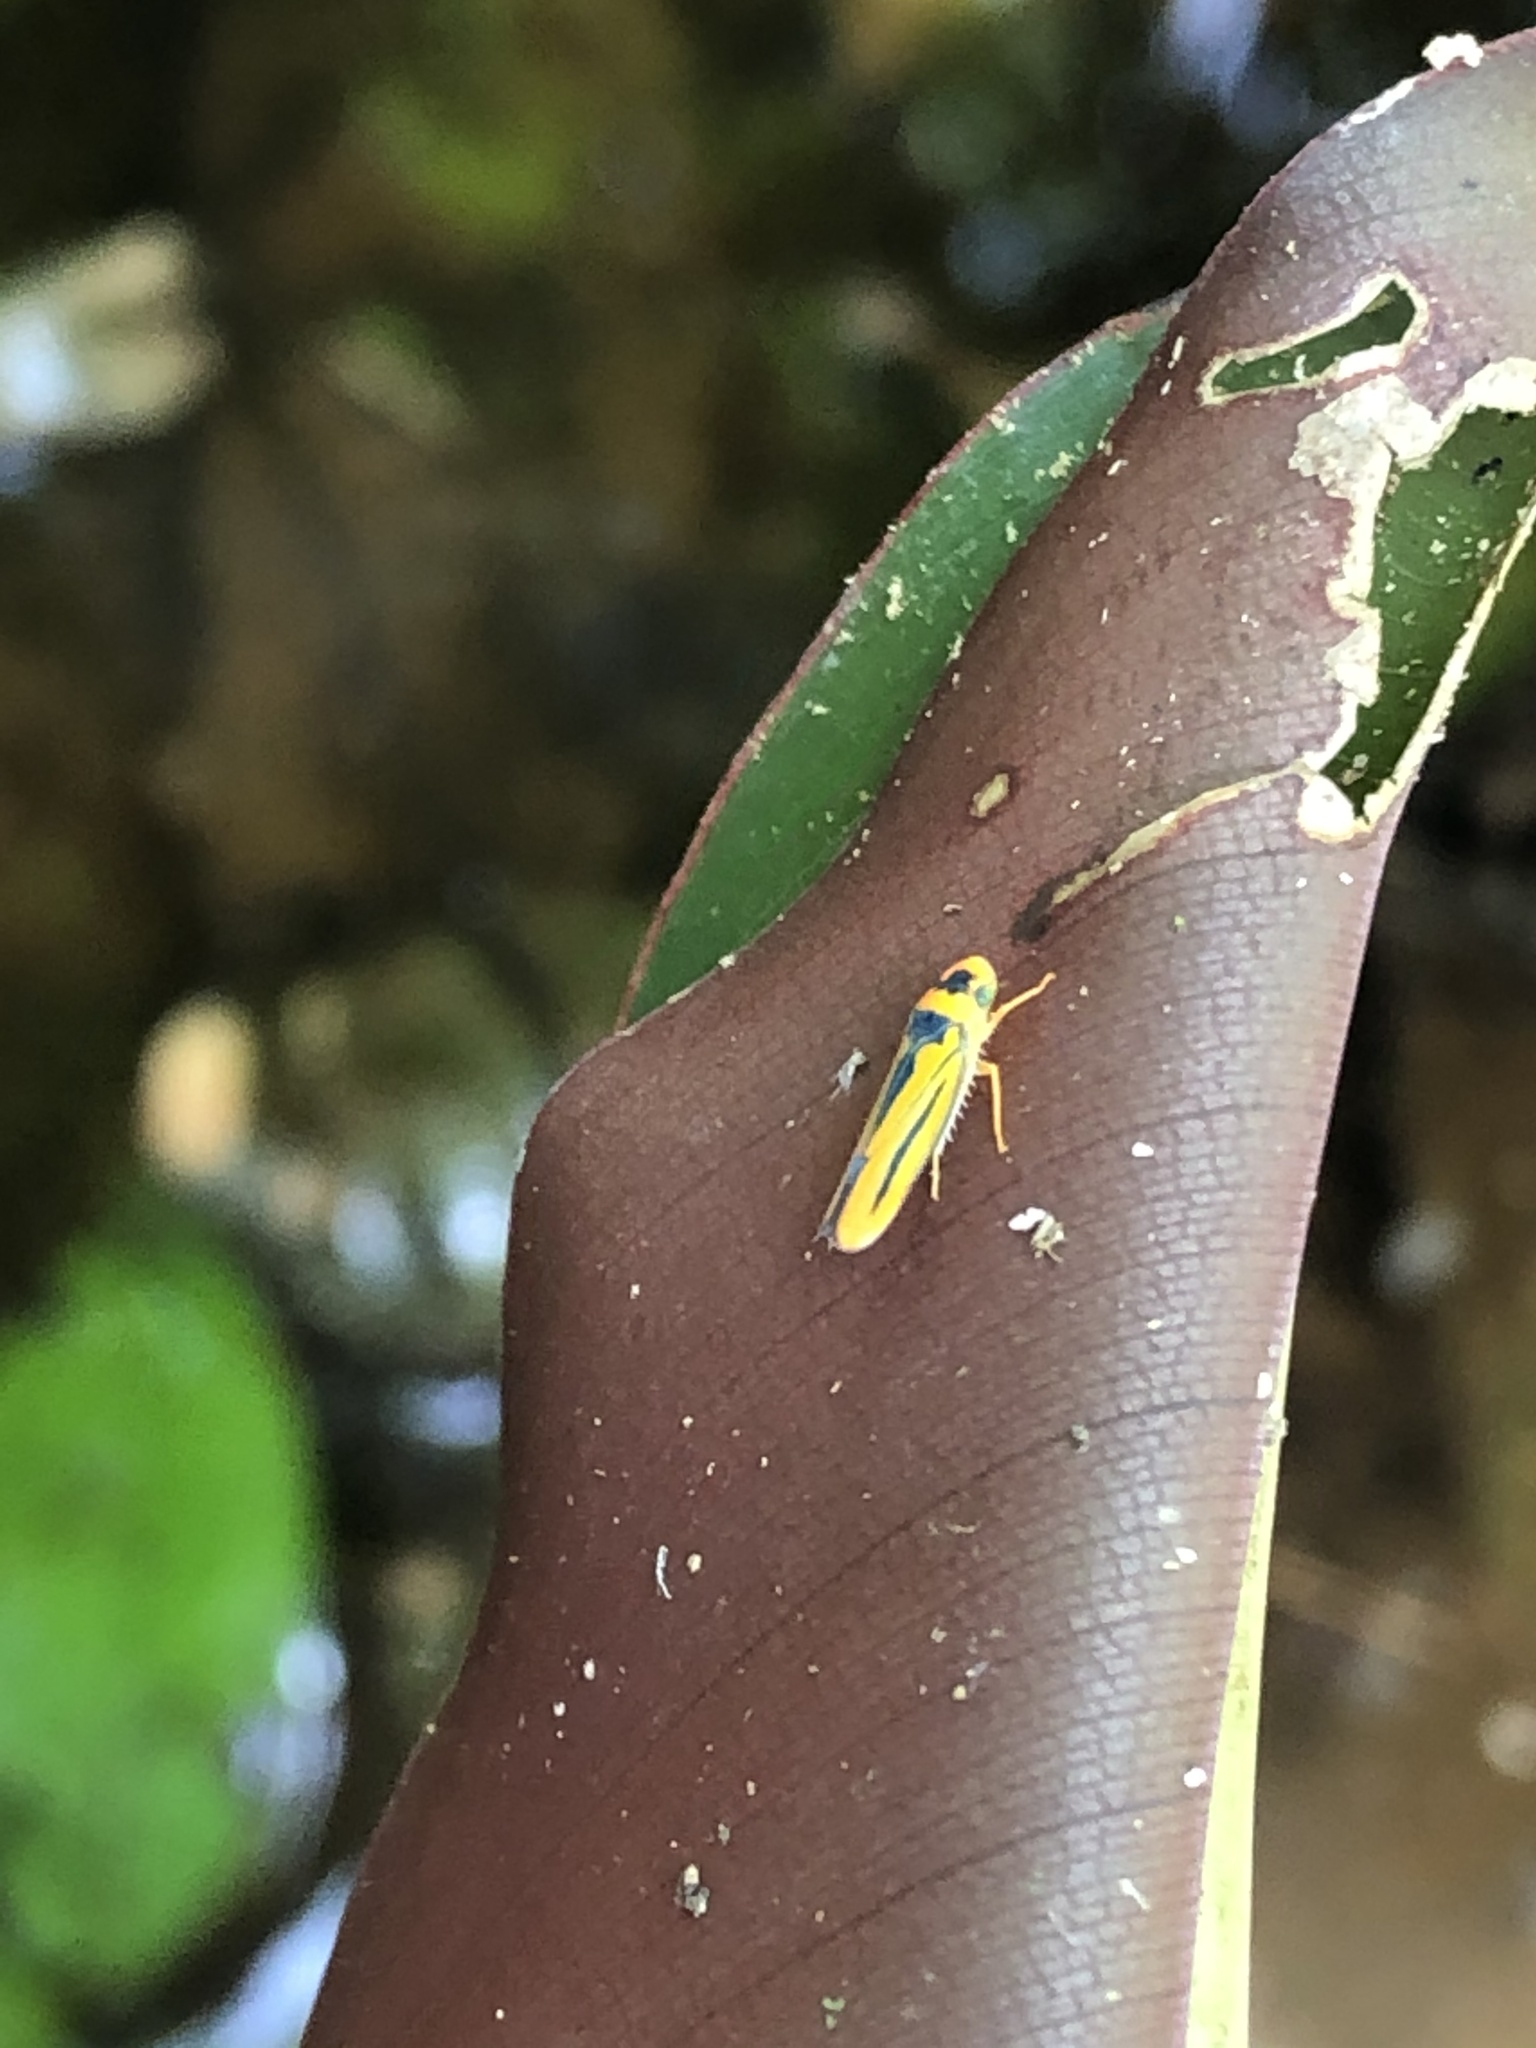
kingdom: Animalia
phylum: Arthropoda
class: Insecta
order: Hemiptera
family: Cicadellidae
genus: Soosiulus
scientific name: Soosiulus velocissimus
